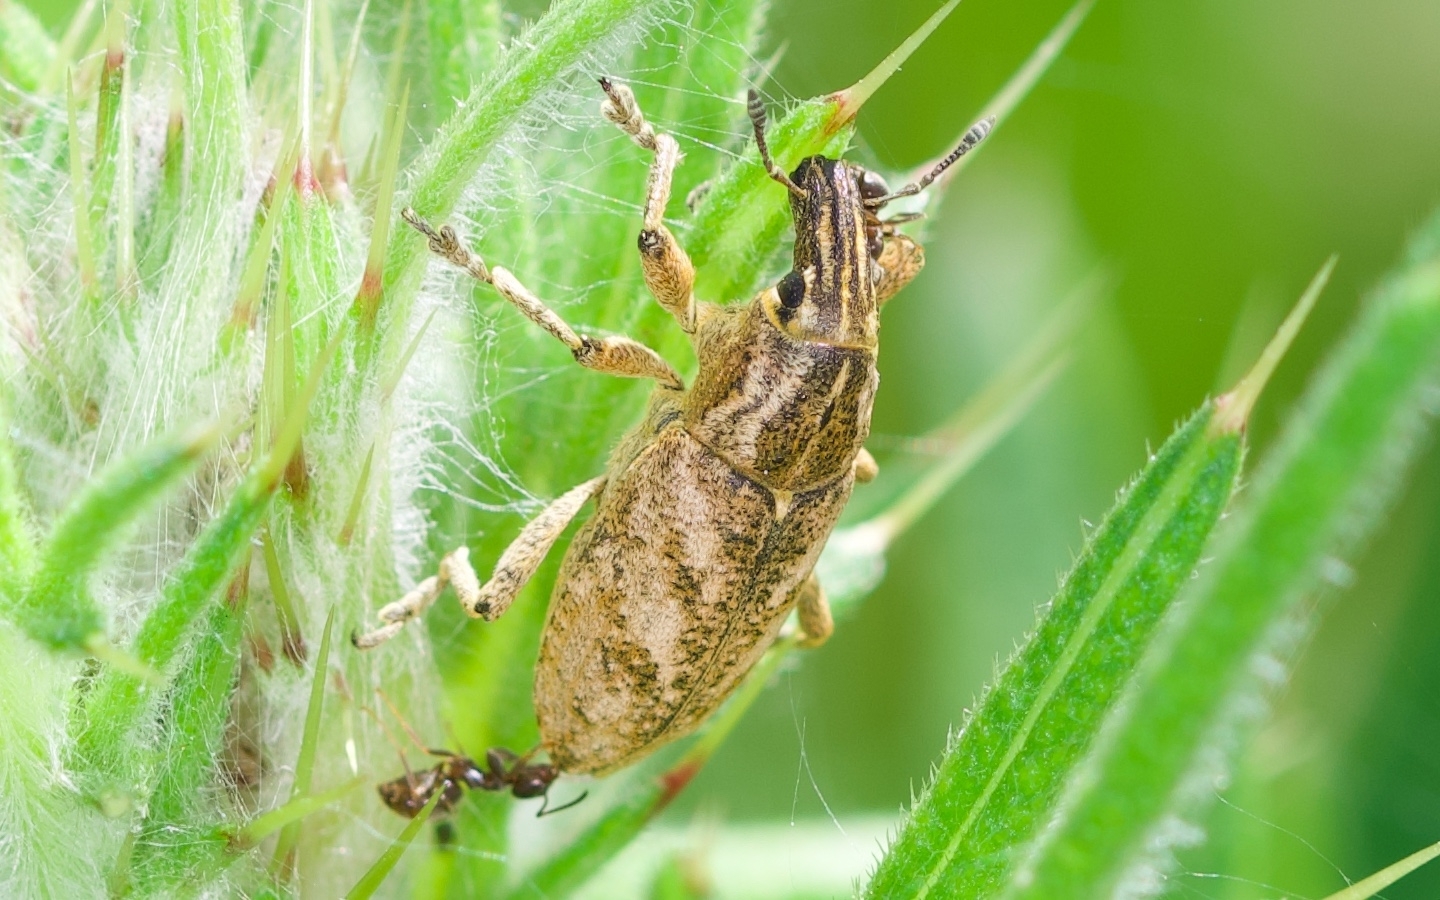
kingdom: Animalia
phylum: Arthropoda
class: Insecta
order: Coleoptera
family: Curculionidae
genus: Cleonis
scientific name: Cleonis pigra
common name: Large thistle weevil
